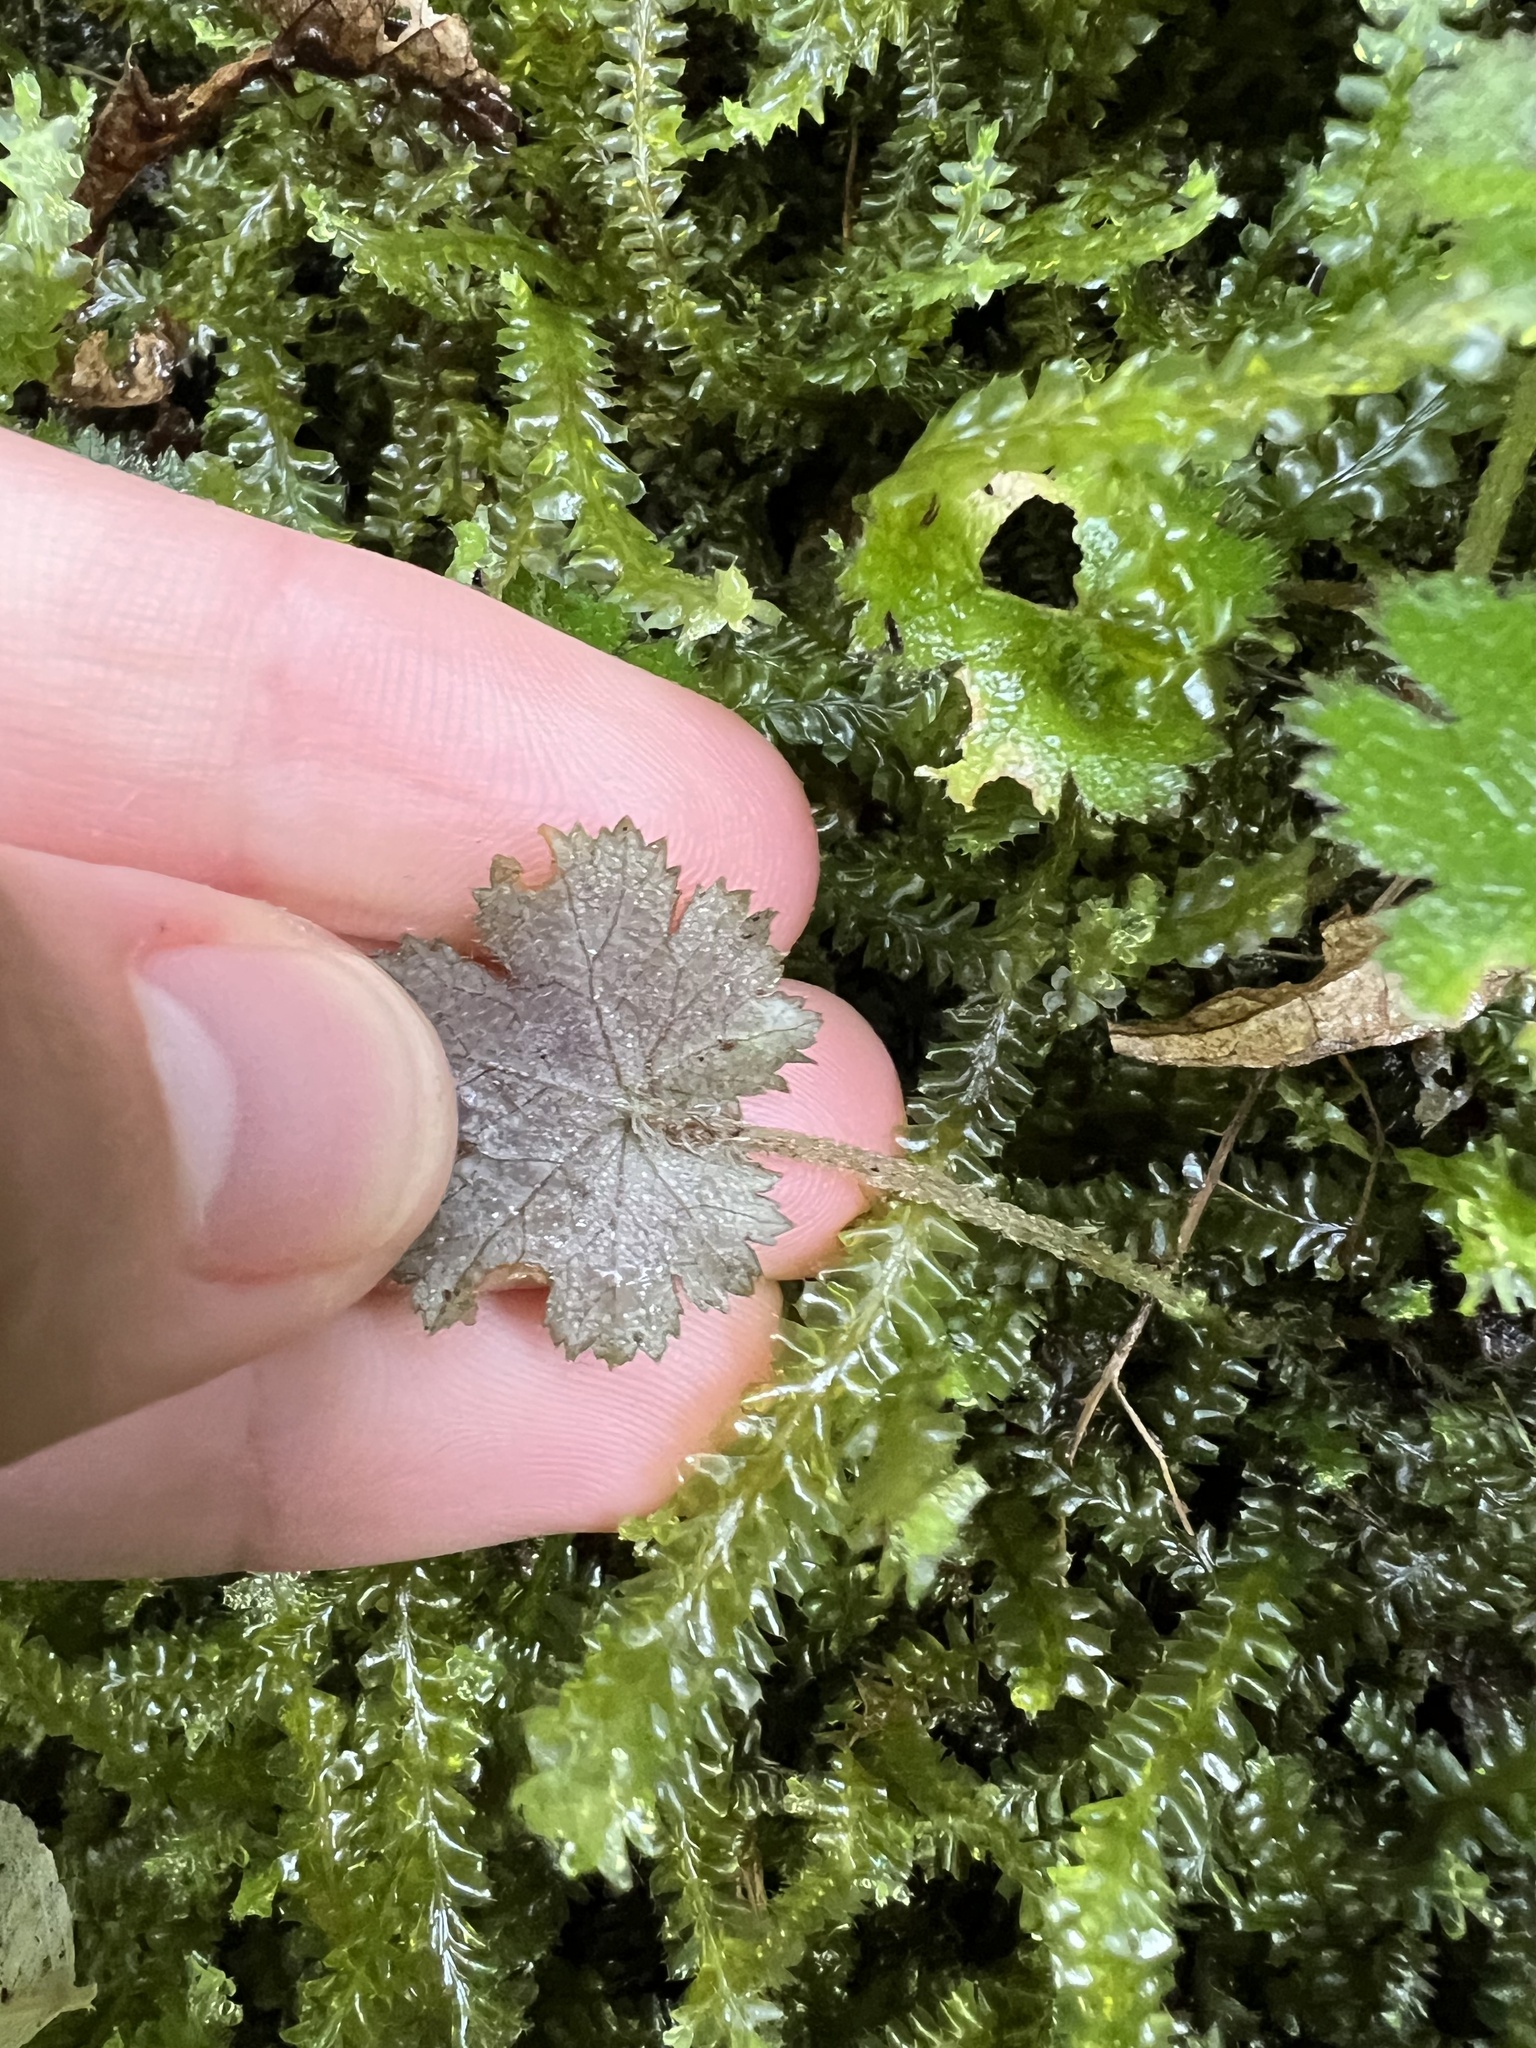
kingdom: Plantae
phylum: Tracheophyta
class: Magnoliopsida
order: Apiales
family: Araliaceae
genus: Hydrocotyle
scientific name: Hydrocotyle elongata
